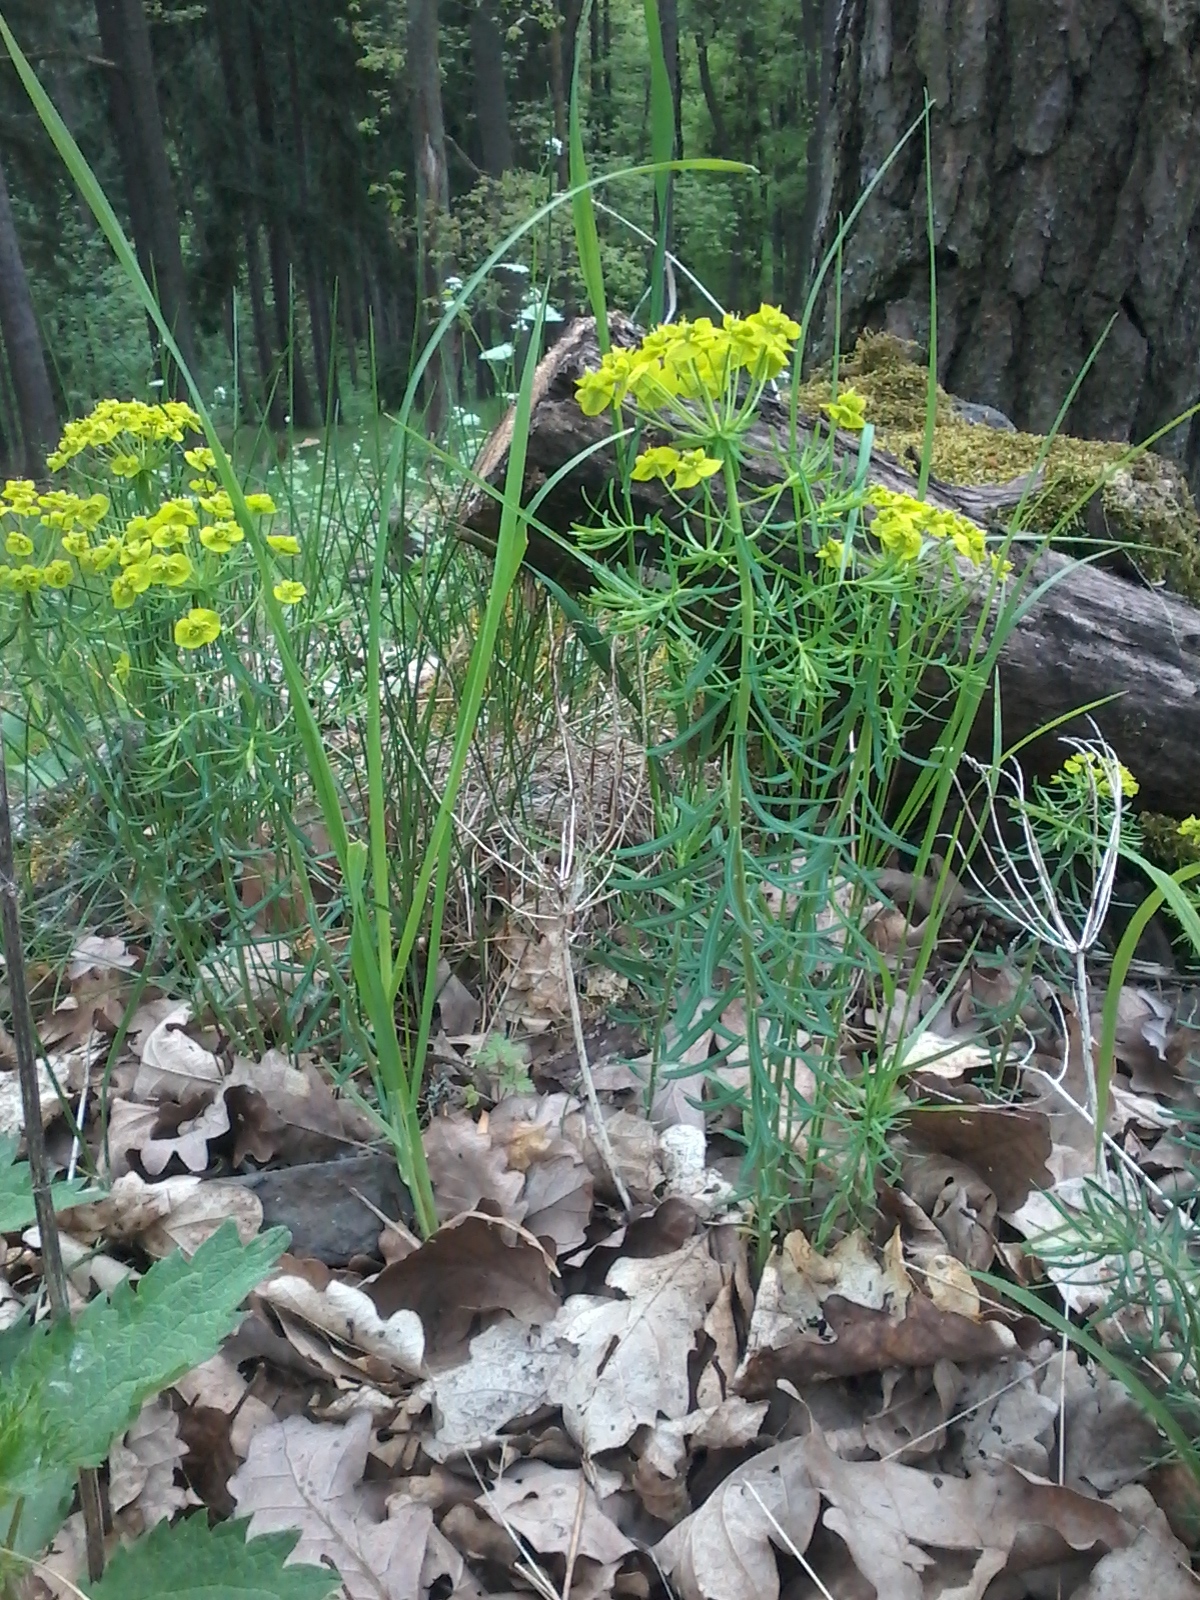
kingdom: Plantae
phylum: Tracheophyta
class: Magnoliopsida
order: Malpighiales
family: Euphorbiaceae
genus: Euphorbia
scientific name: Euphorbia cyparissias
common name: Cypress spurge
